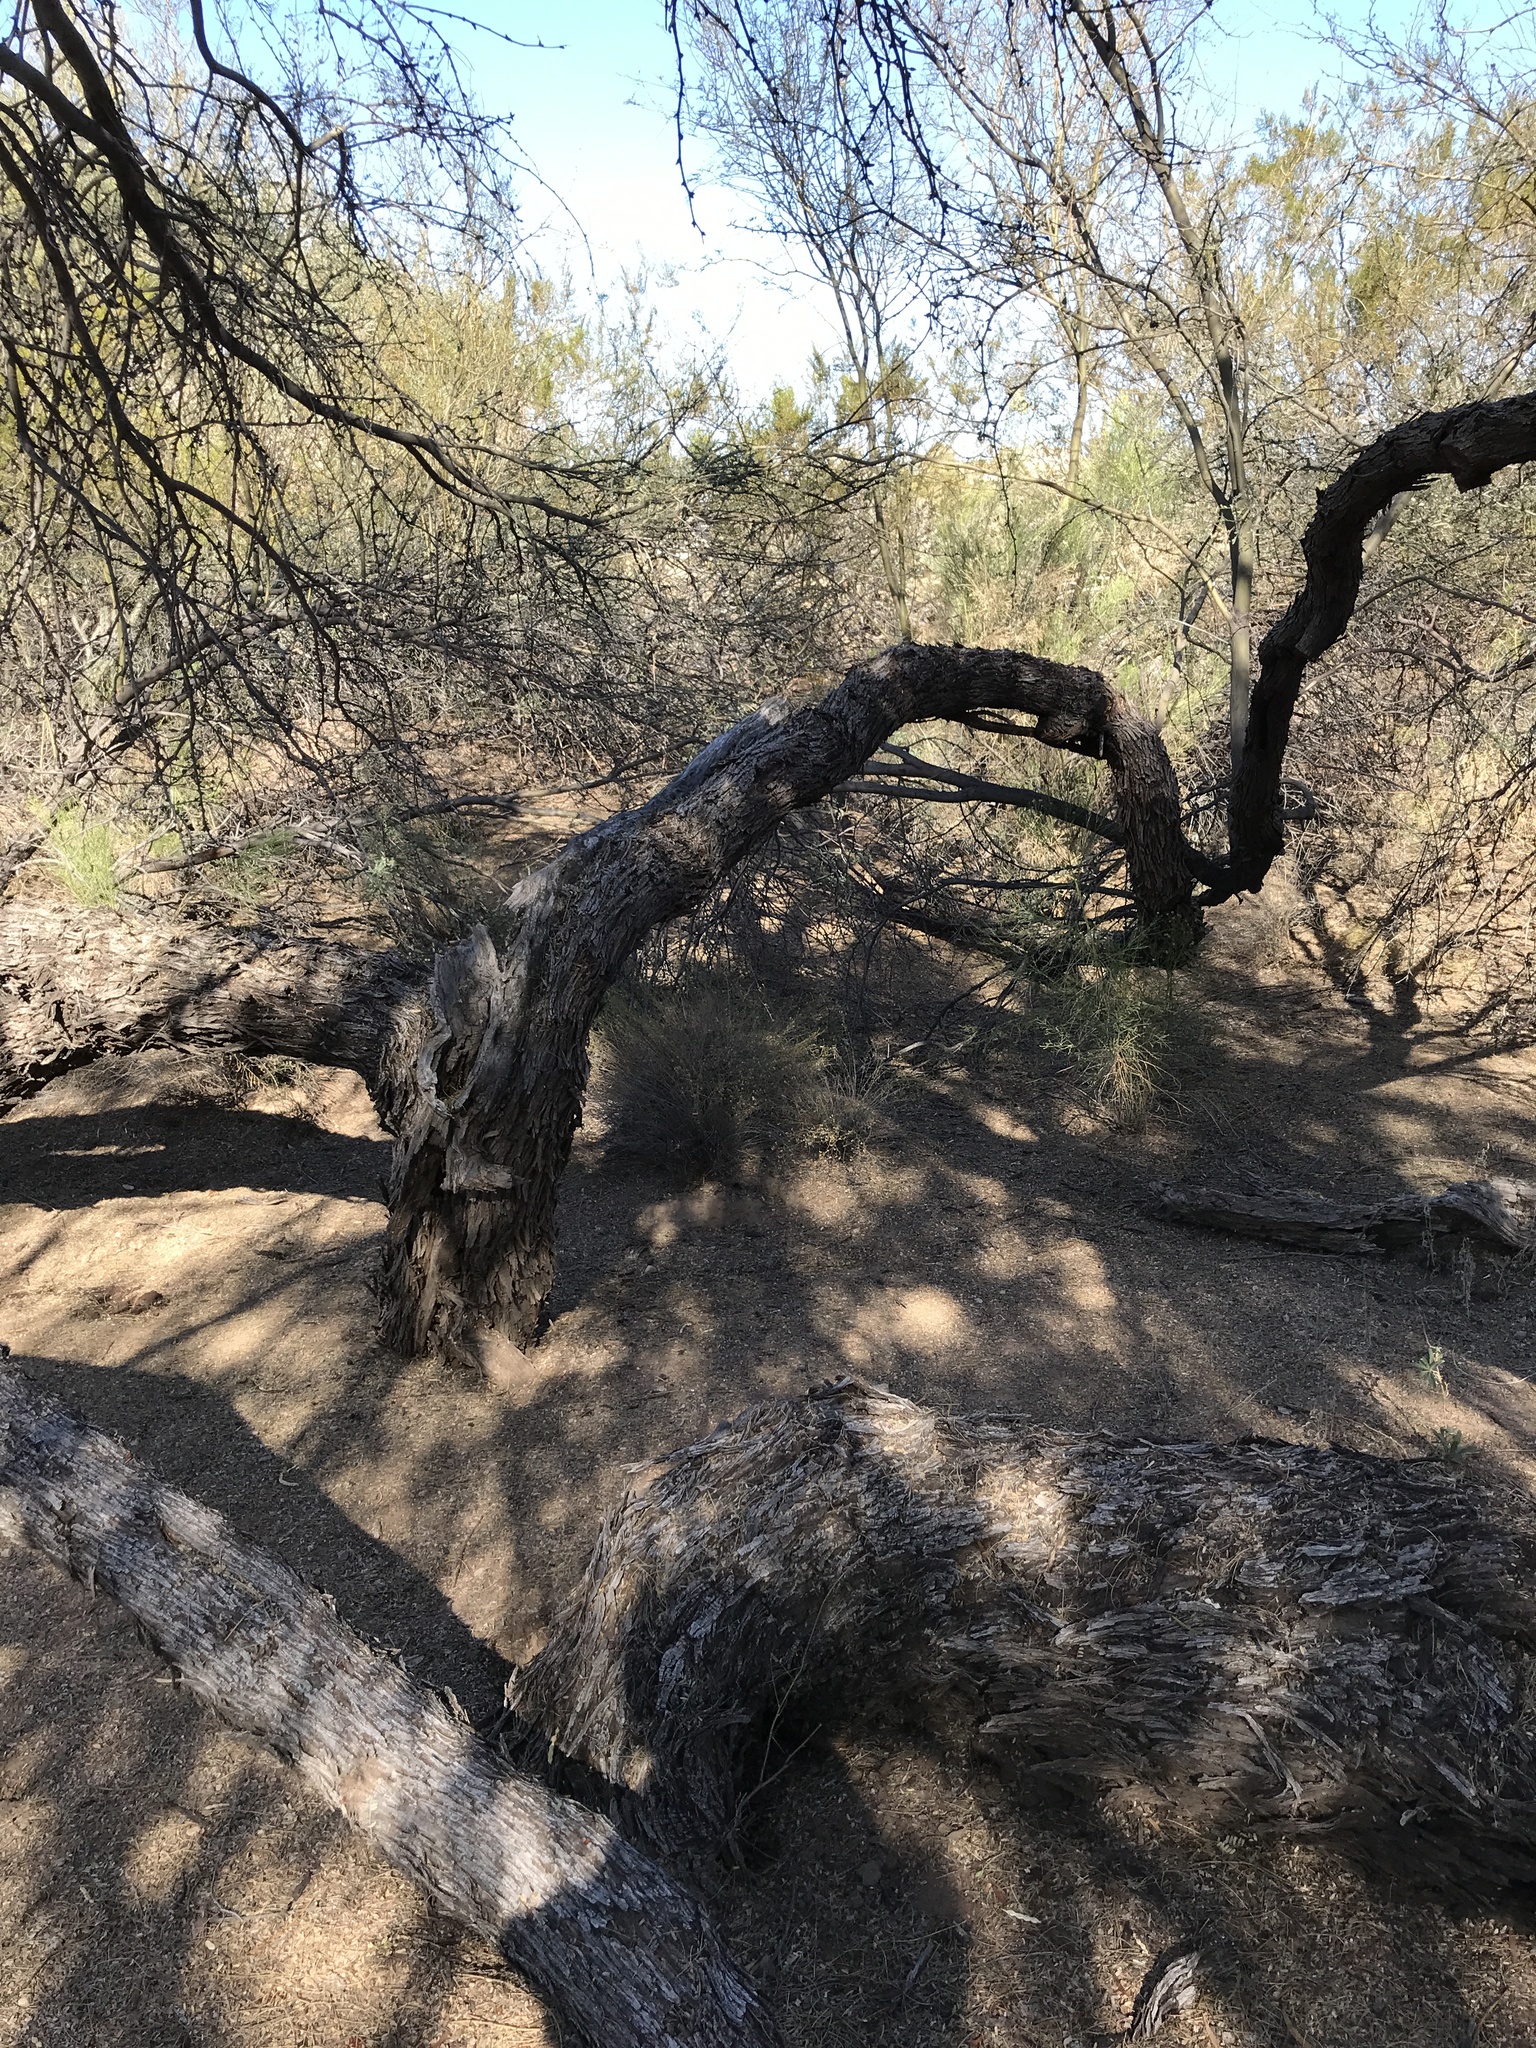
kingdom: Plantae
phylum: Tracheophyta
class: Magnoliopsida
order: Fabales
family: Fabaceae
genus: Prosopis
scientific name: Prosopis velutina
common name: Velvet mesquite
